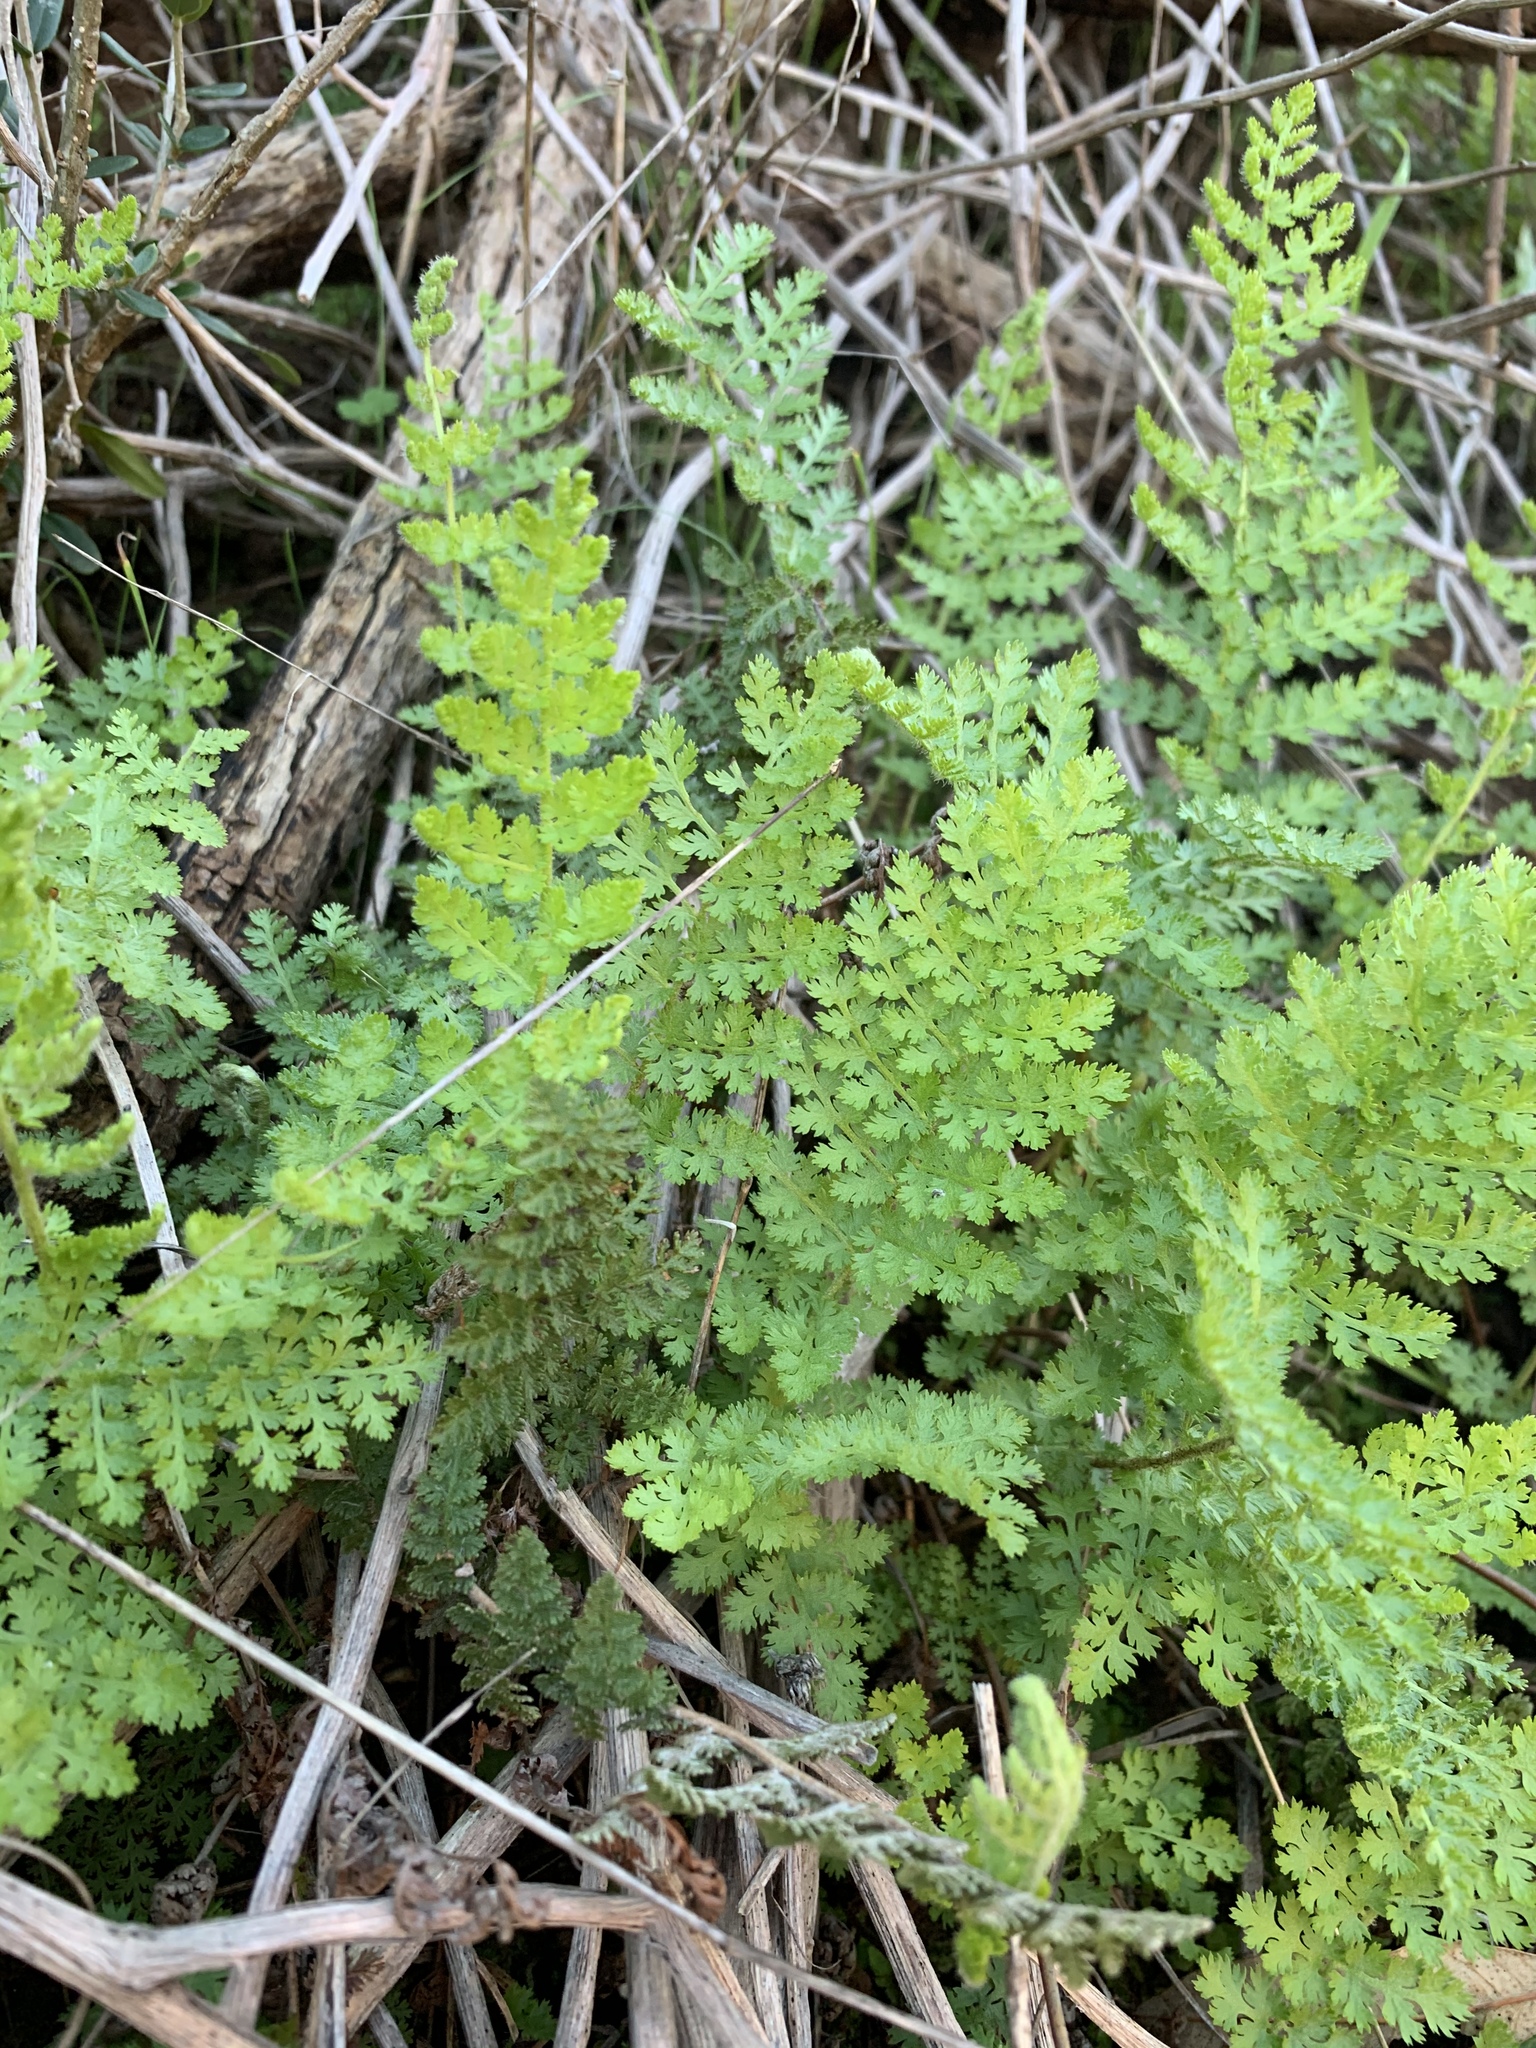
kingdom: Plantae
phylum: Tracheophyta
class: Polypodiopsida
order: Schizaeales
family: Anemiaceae
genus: Anemia
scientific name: Anemia caffrorum
